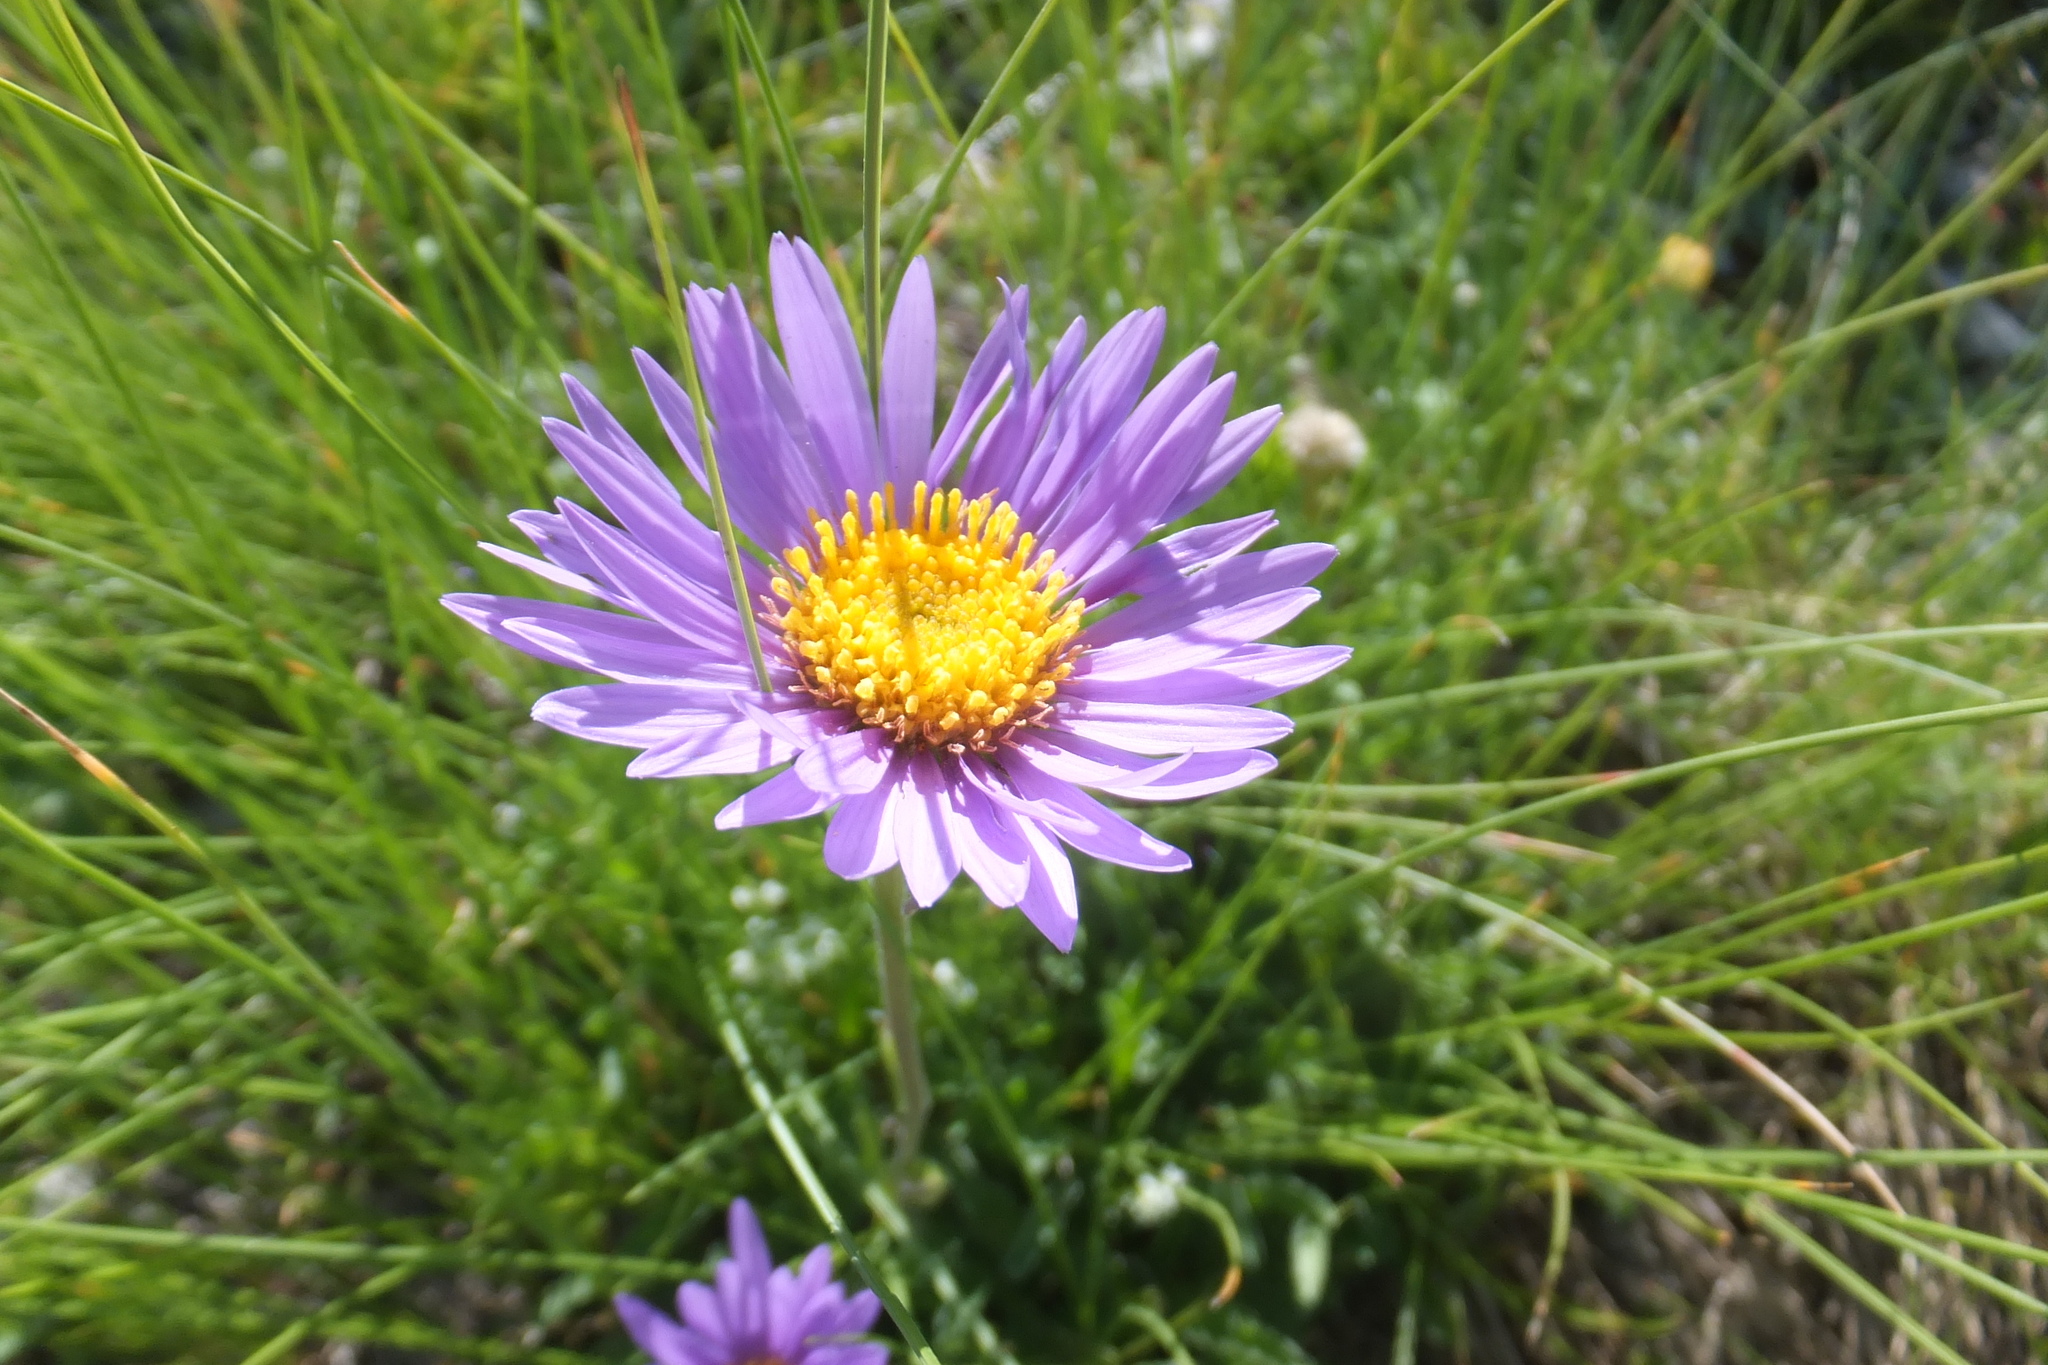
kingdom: Plantae
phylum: Tracheophyta
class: Magnoliopsida
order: Asterales
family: Asteraceae
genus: Aster
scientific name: Aster alpinus
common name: Alpine aster
